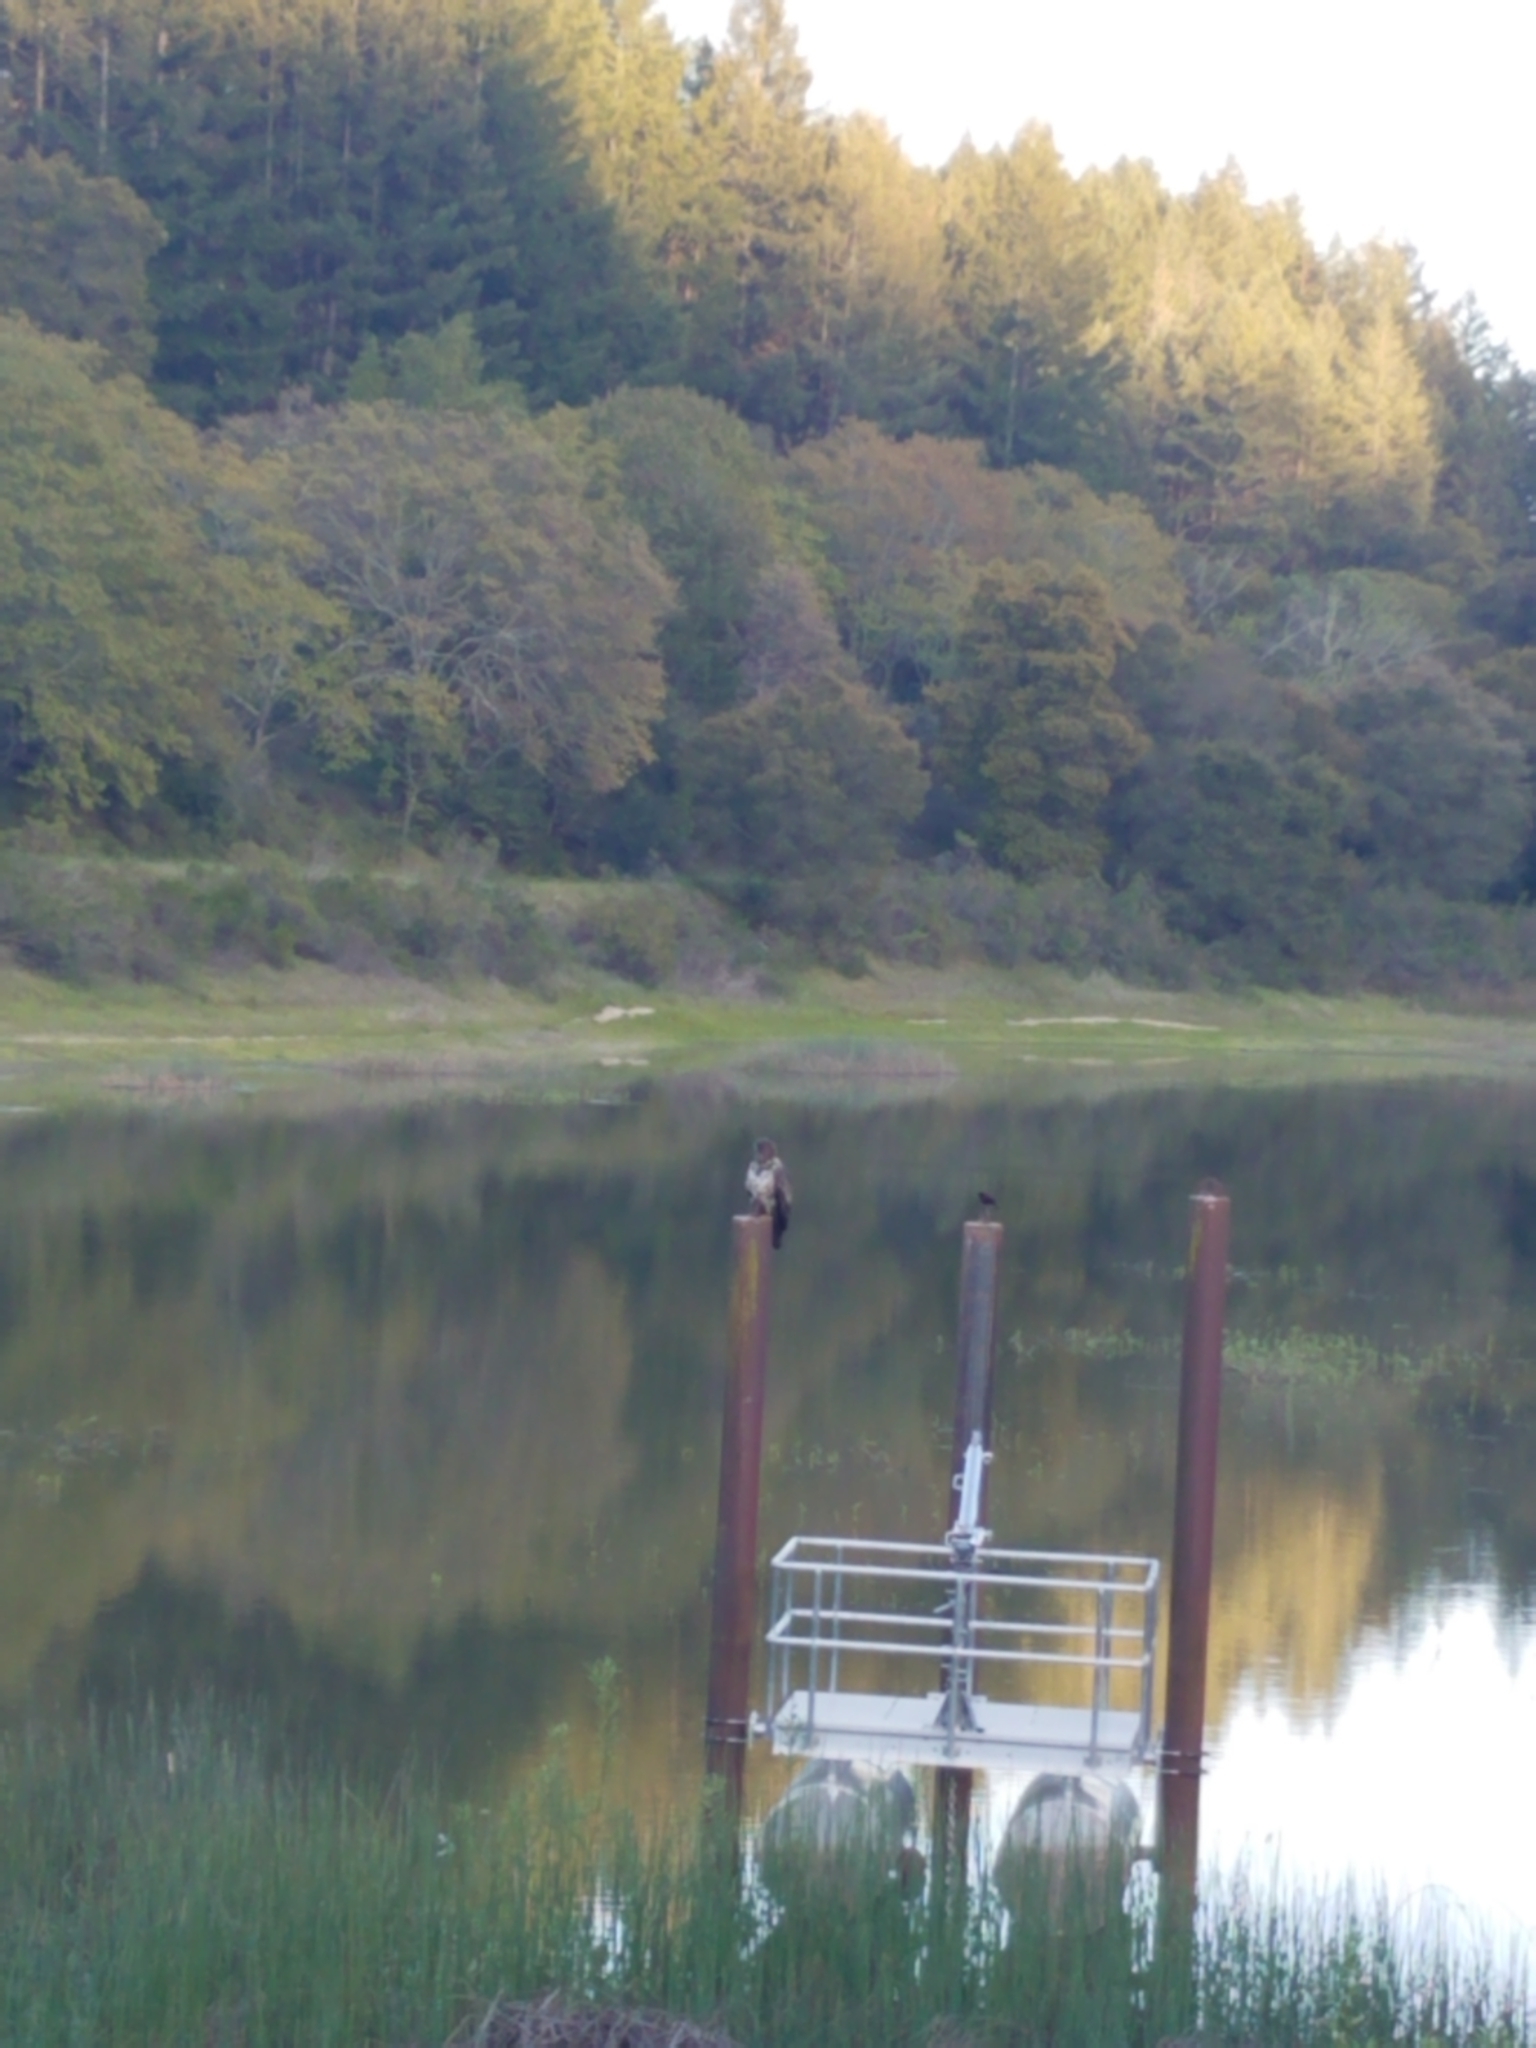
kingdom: Animalia
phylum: Chordata
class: Aves
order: Accipitriformes
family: Accipitridae
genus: Buteo
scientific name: Buteo jamaicensis
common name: Red-tailed hawk
